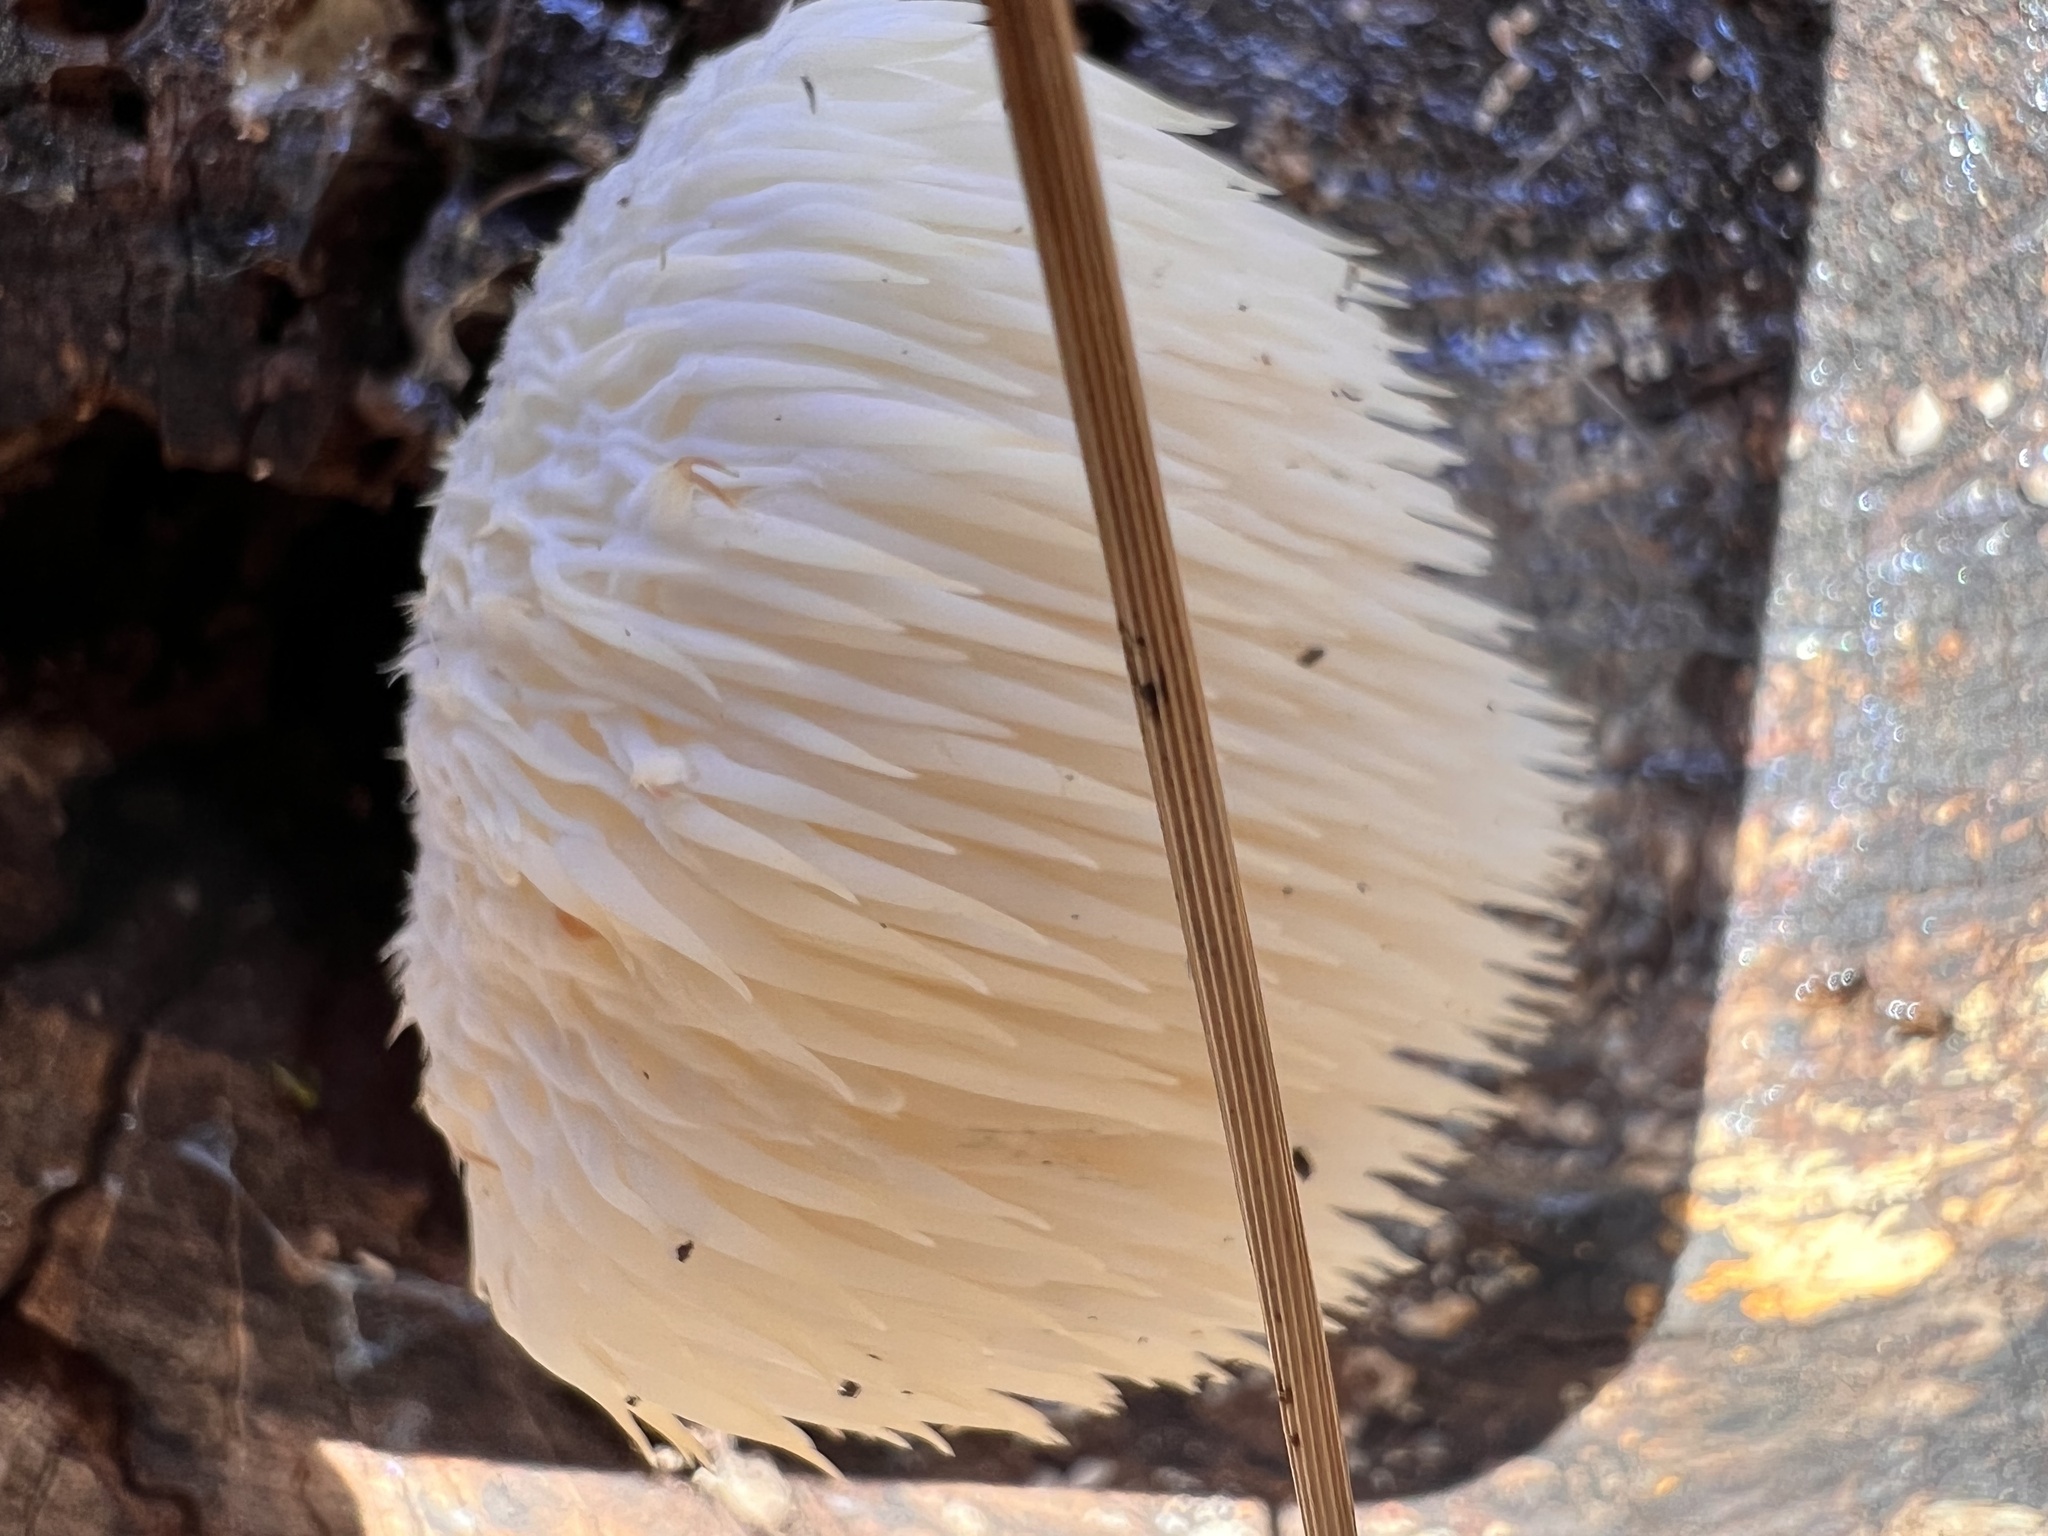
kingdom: Fungi
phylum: Basidiomycota
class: Agaricomycetes
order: Russulales
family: Hericiaceae
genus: Hericium
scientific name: Hericium erinaceus
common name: Bearded tooth
